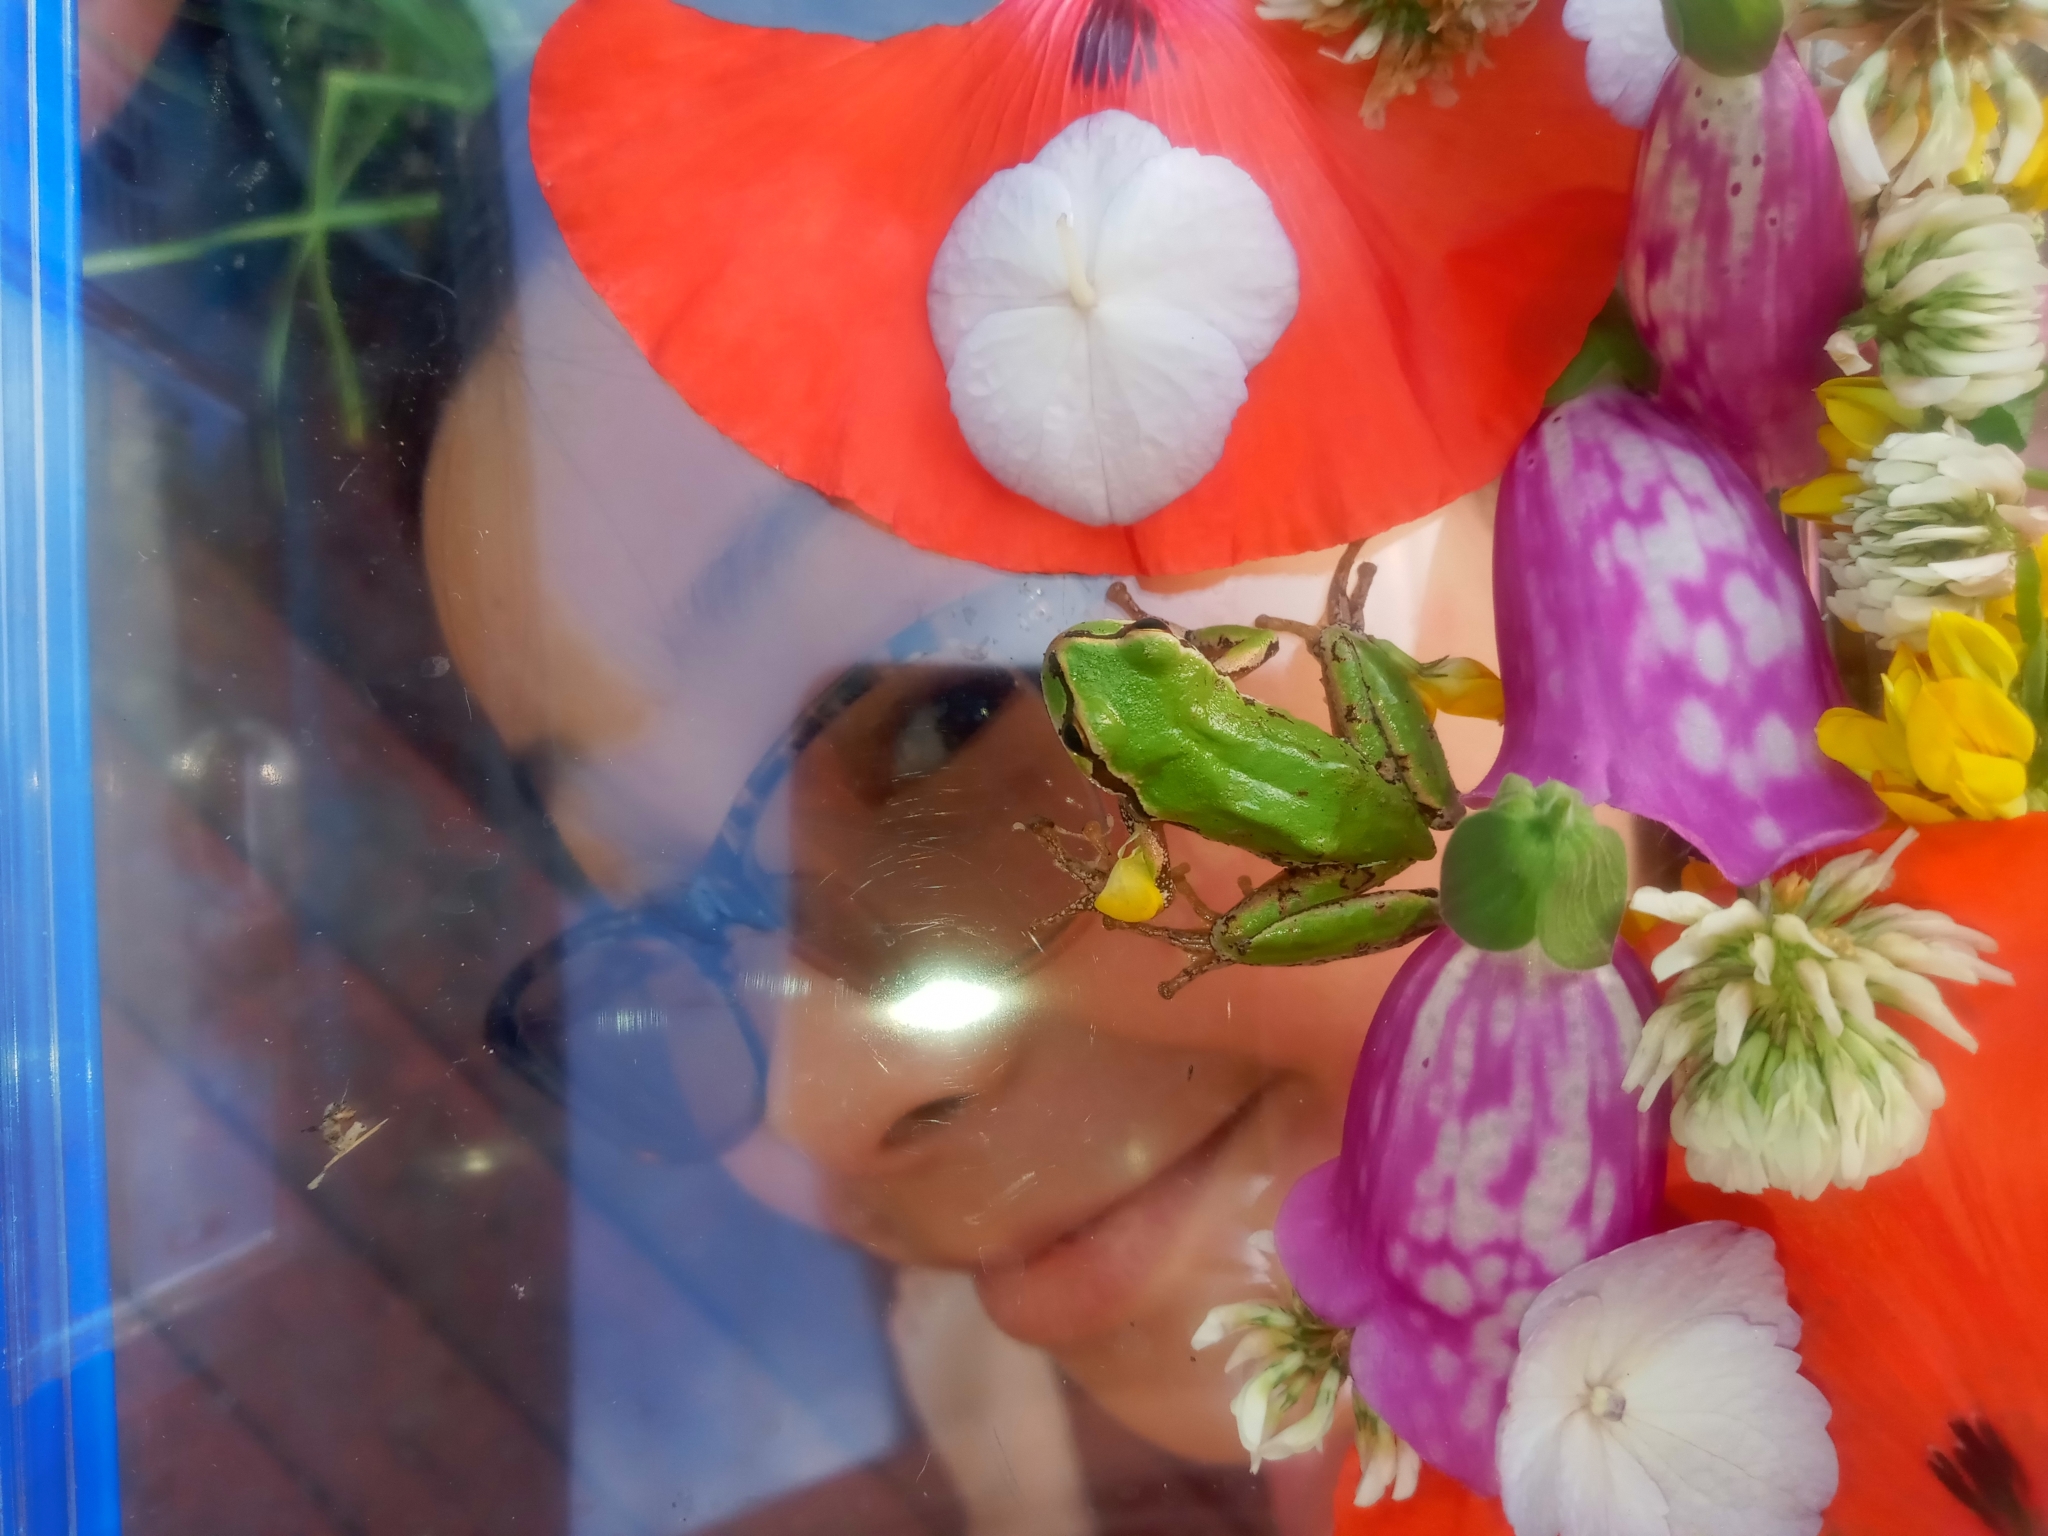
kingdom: Animalia
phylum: Chordata
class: Amphibia
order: Anura
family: Hylidae
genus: Pseudacris
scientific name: Pseudacris regilla
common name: Pacific chorus frog
